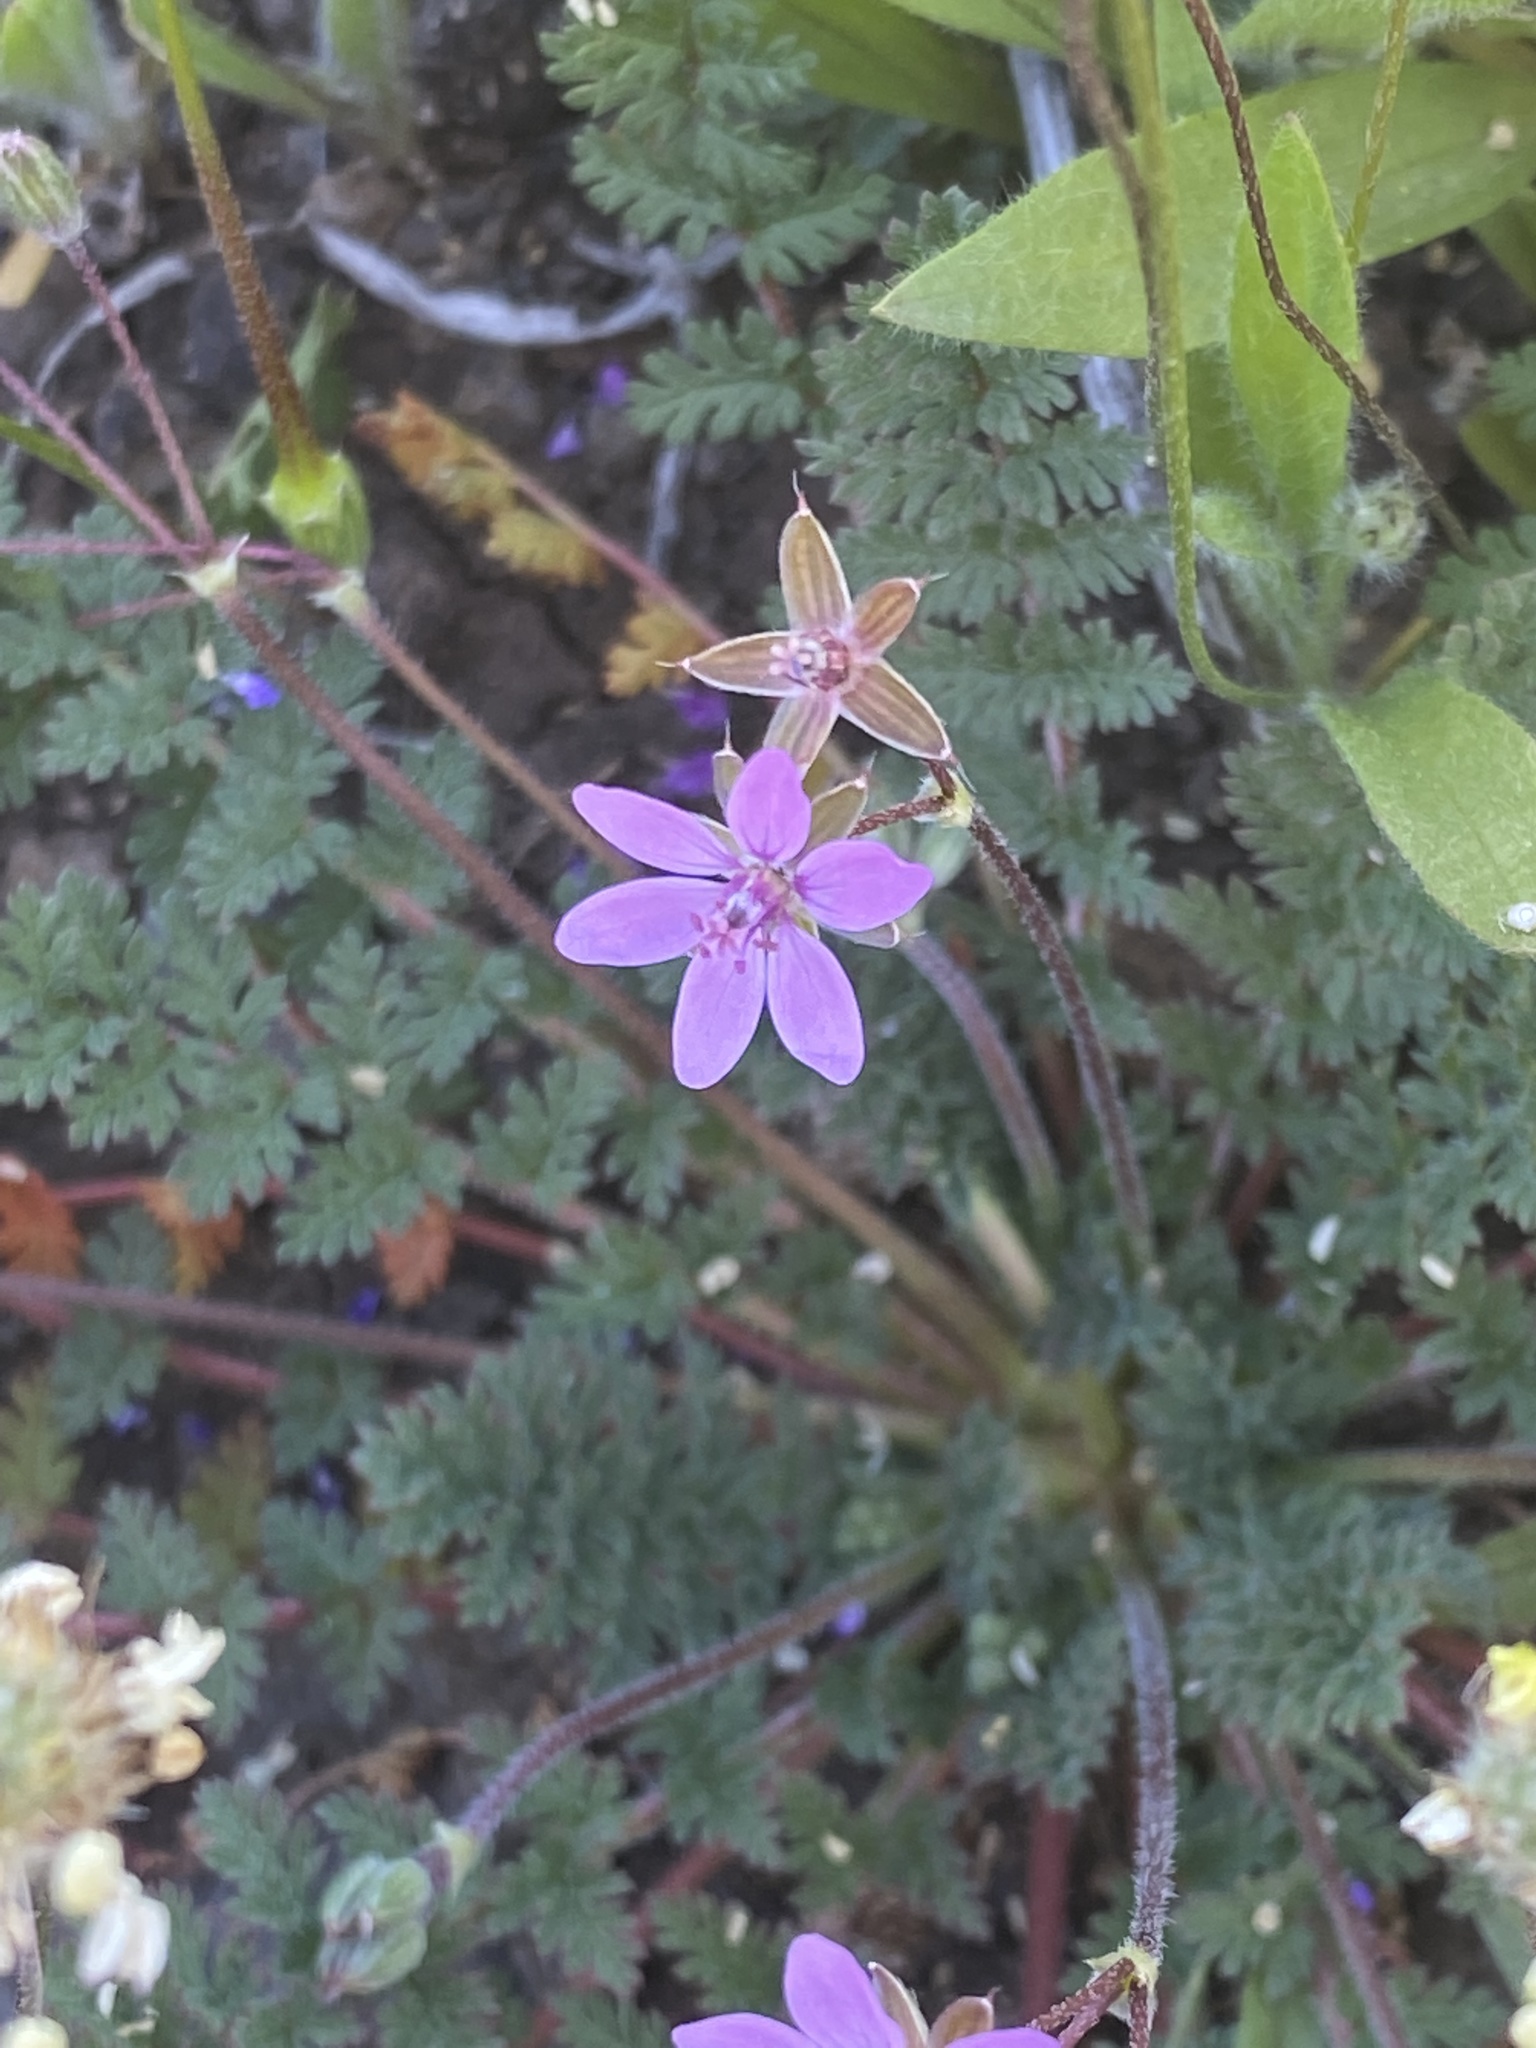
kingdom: Plantae
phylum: Tracheophyta
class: Magnoliopsida
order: Geraniales
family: Geraniaceae
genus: Erodium
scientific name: Erodium cicutarium
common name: Common stork's-bill
